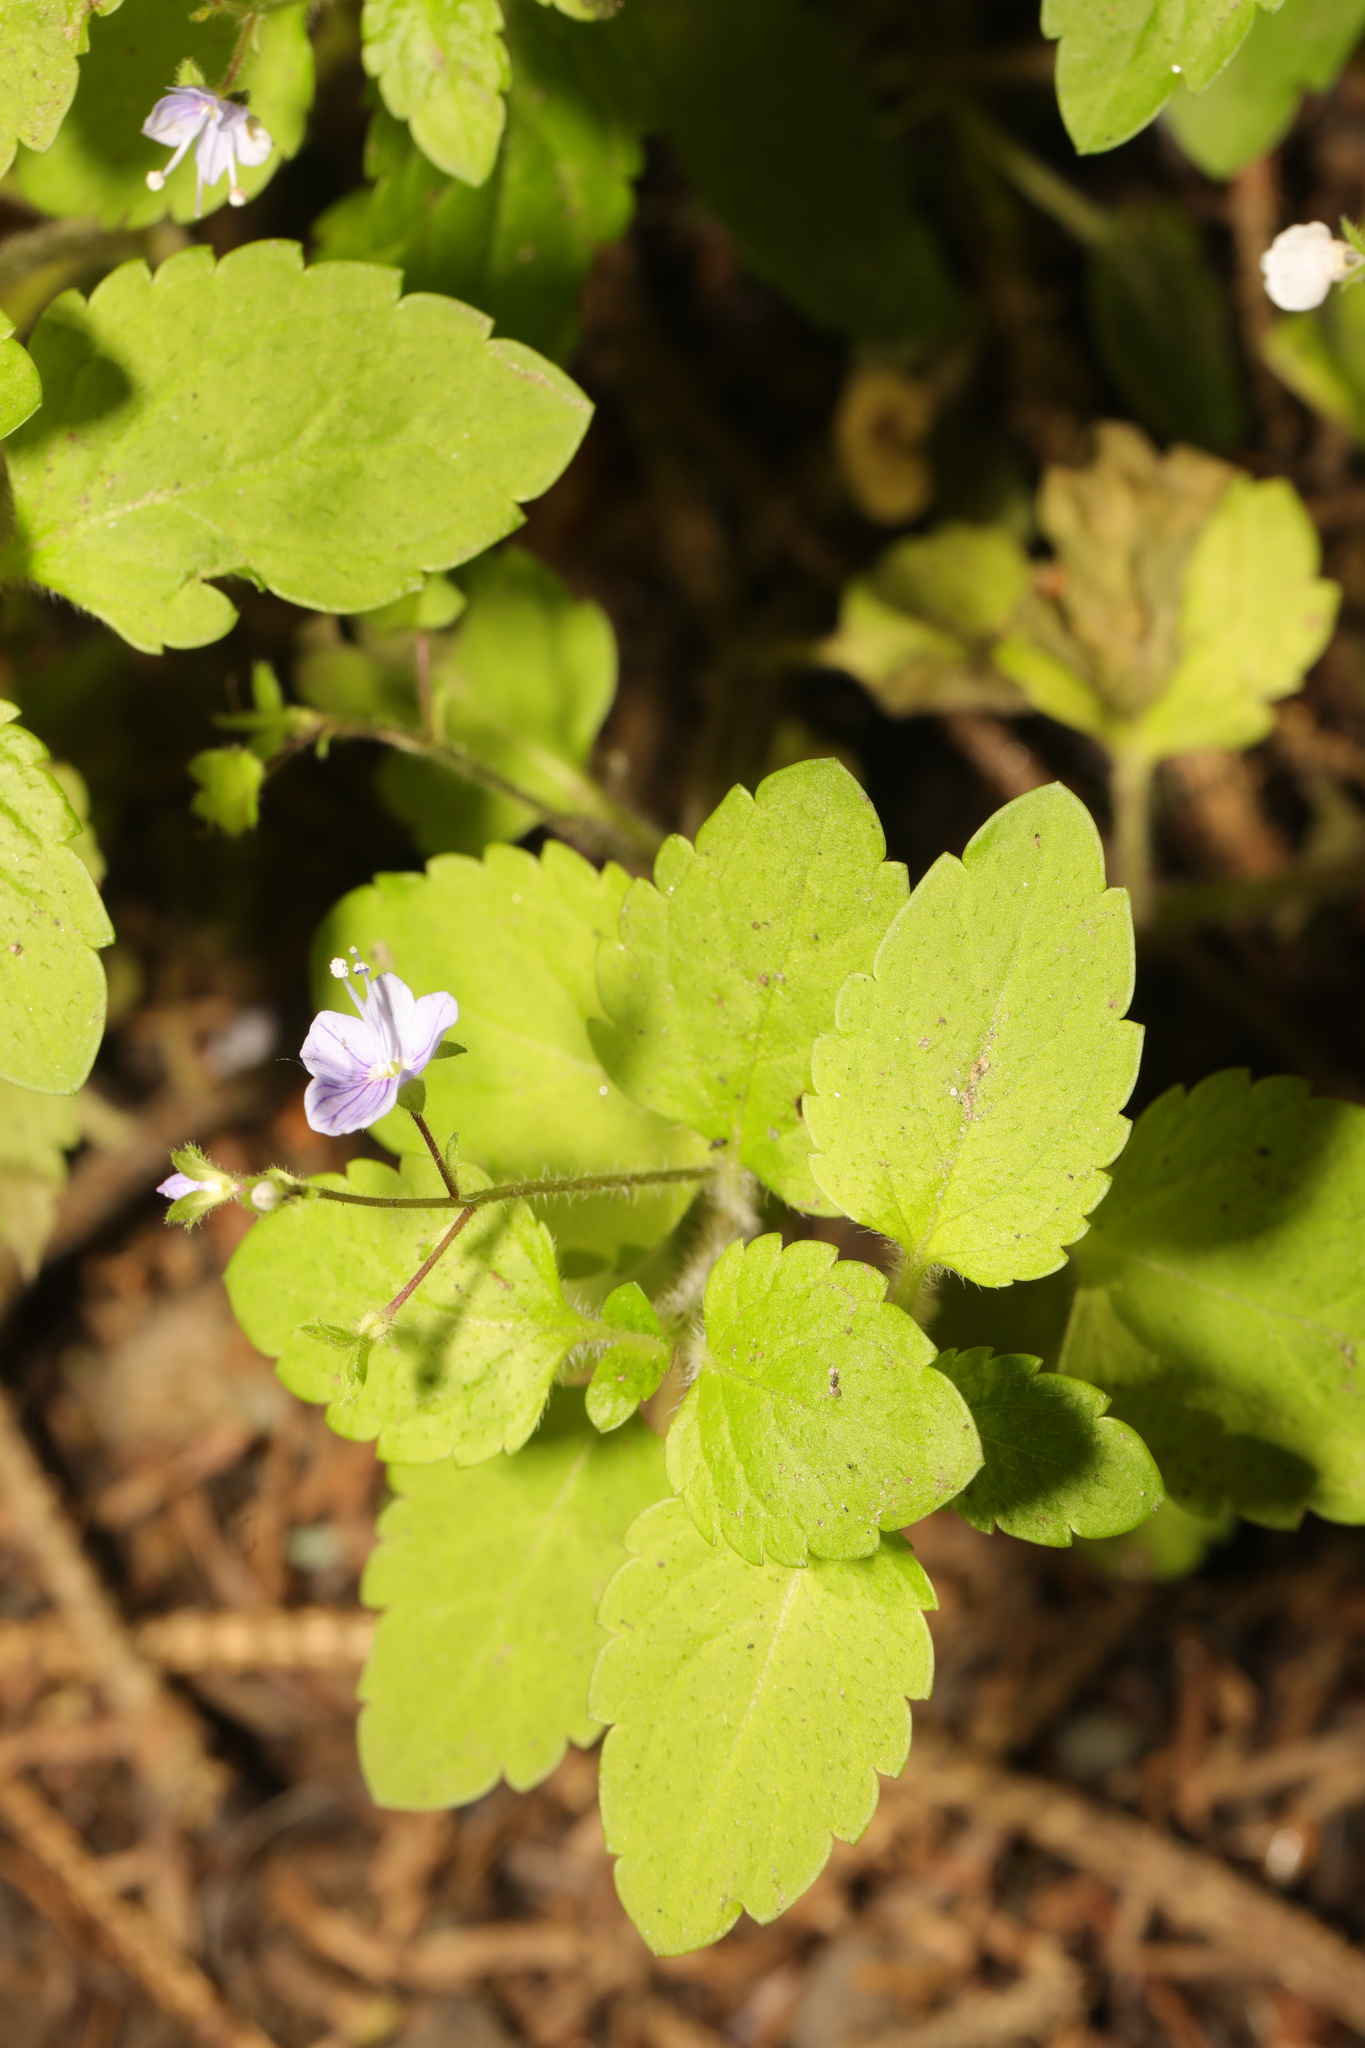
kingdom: Plantae
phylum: Tracheophyta
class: Magnoliopsida
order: Lamiales
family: Plantaginaceae
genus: Veronica
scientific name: Veronica montana
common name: Wood speedwell
